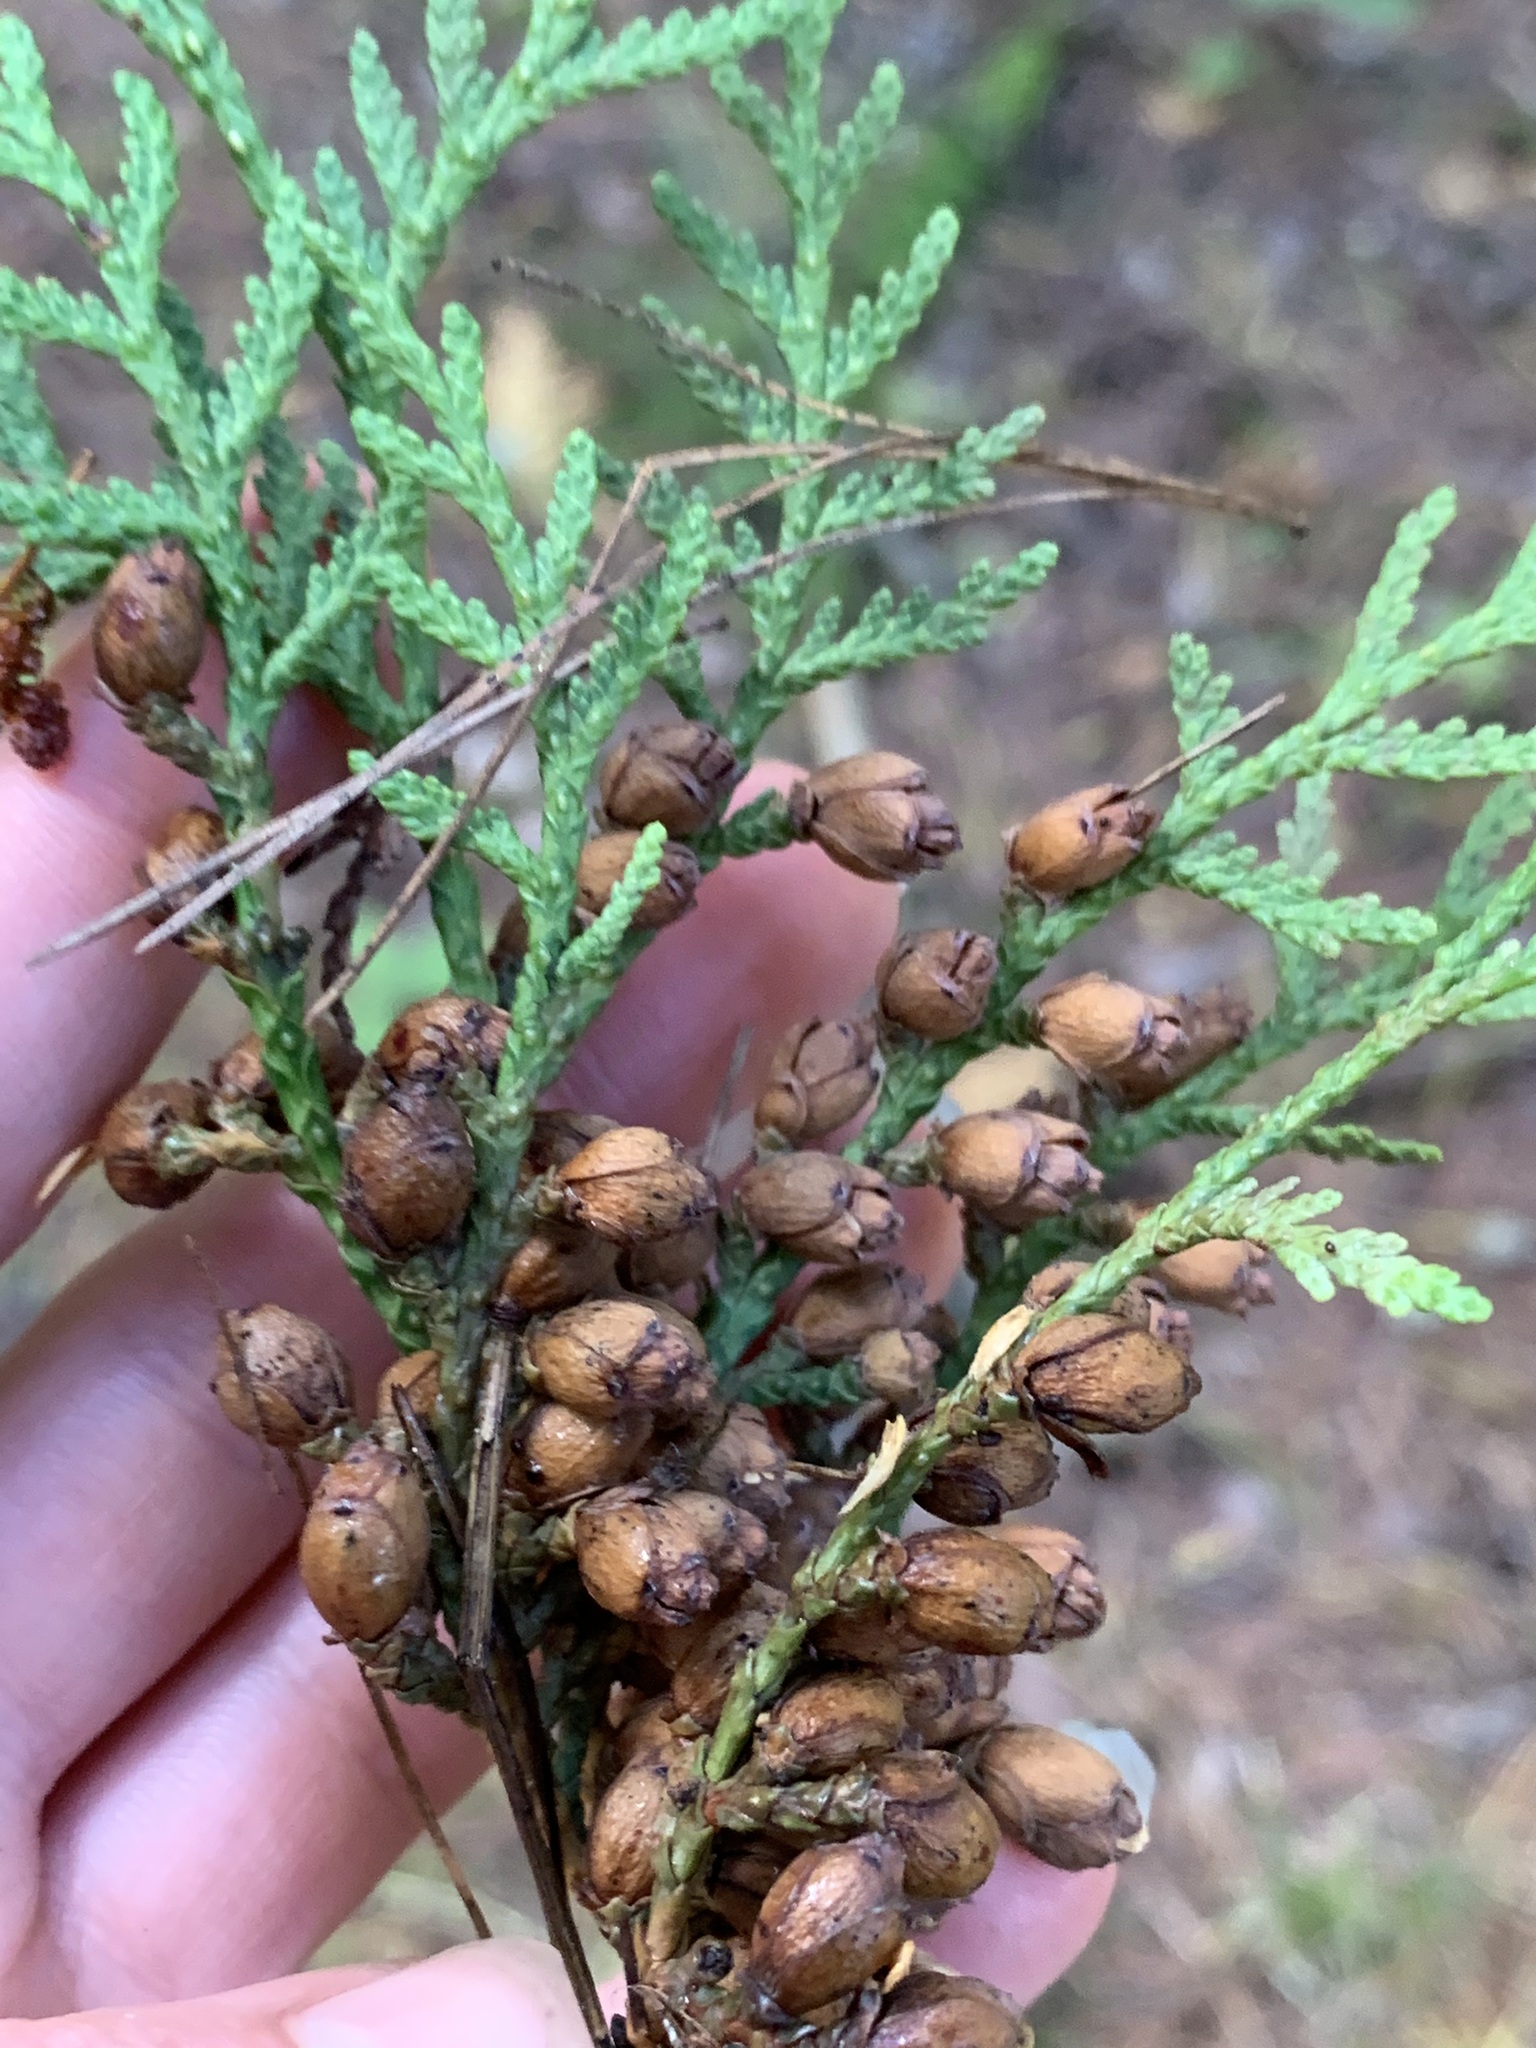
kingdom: Plantae
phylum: Tracheophyta
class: Pinopsida
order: Pinales
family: Cupressaceae
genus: Thuja
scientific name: Thuja occidentalis
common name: Northern white-cedar
